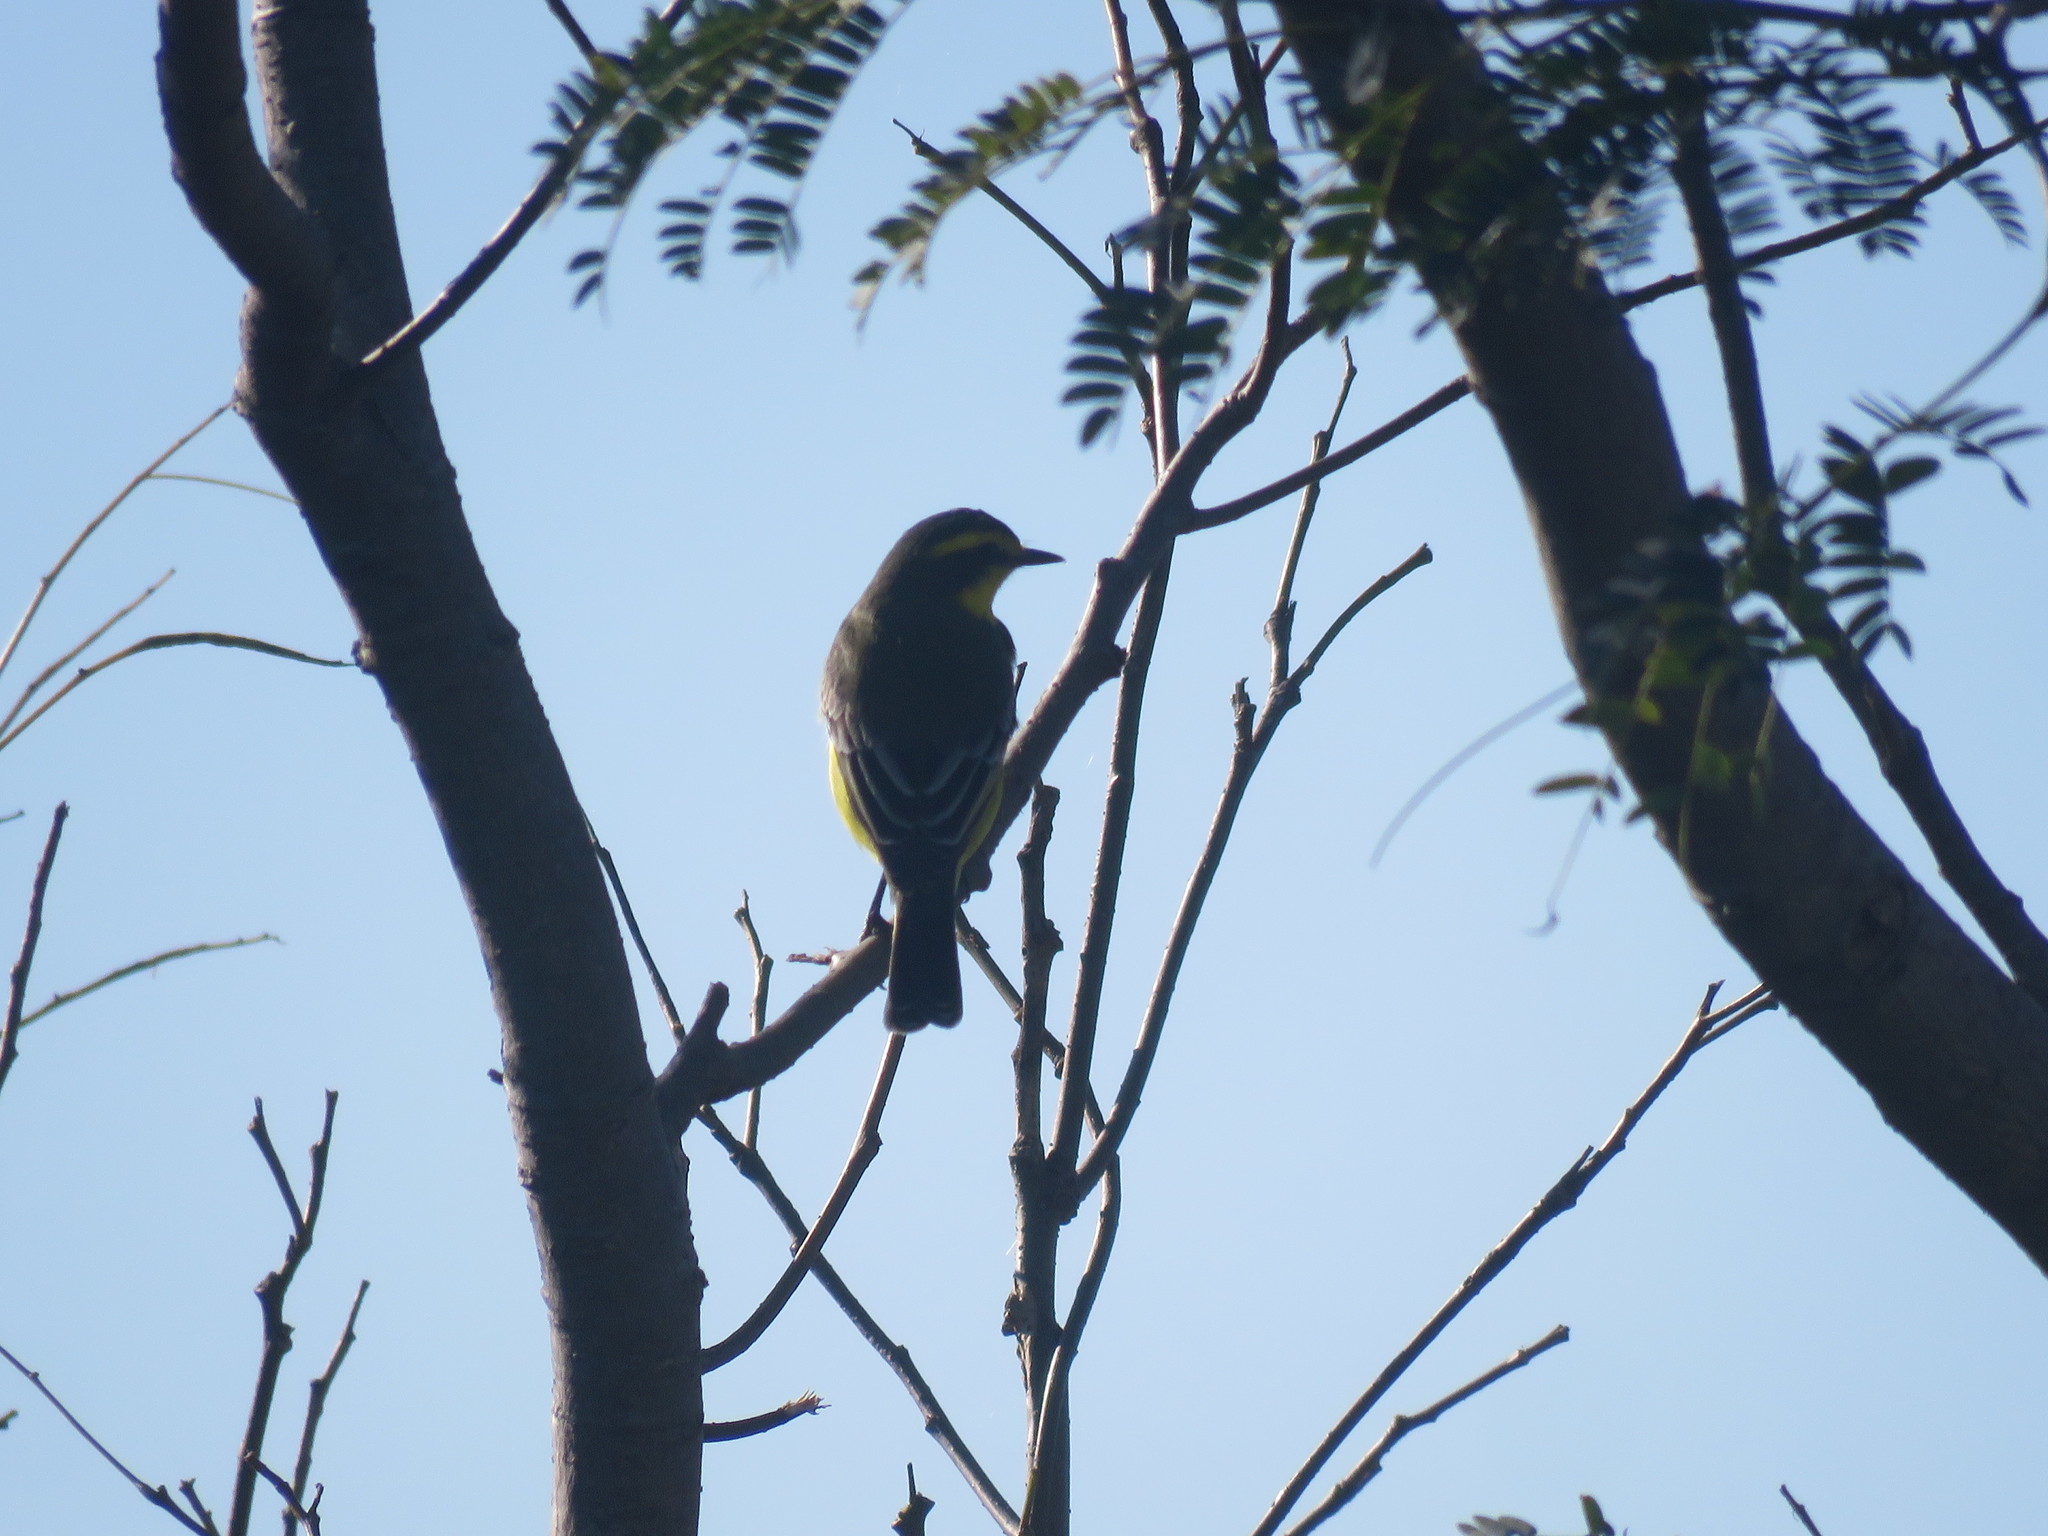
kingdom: Animalia
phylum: Chordata
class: Aves
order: Passeriformes
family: Tyrannidae
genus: Satrapa
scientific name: Satrapa icterophrys
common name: Yellow-browed tyrant
